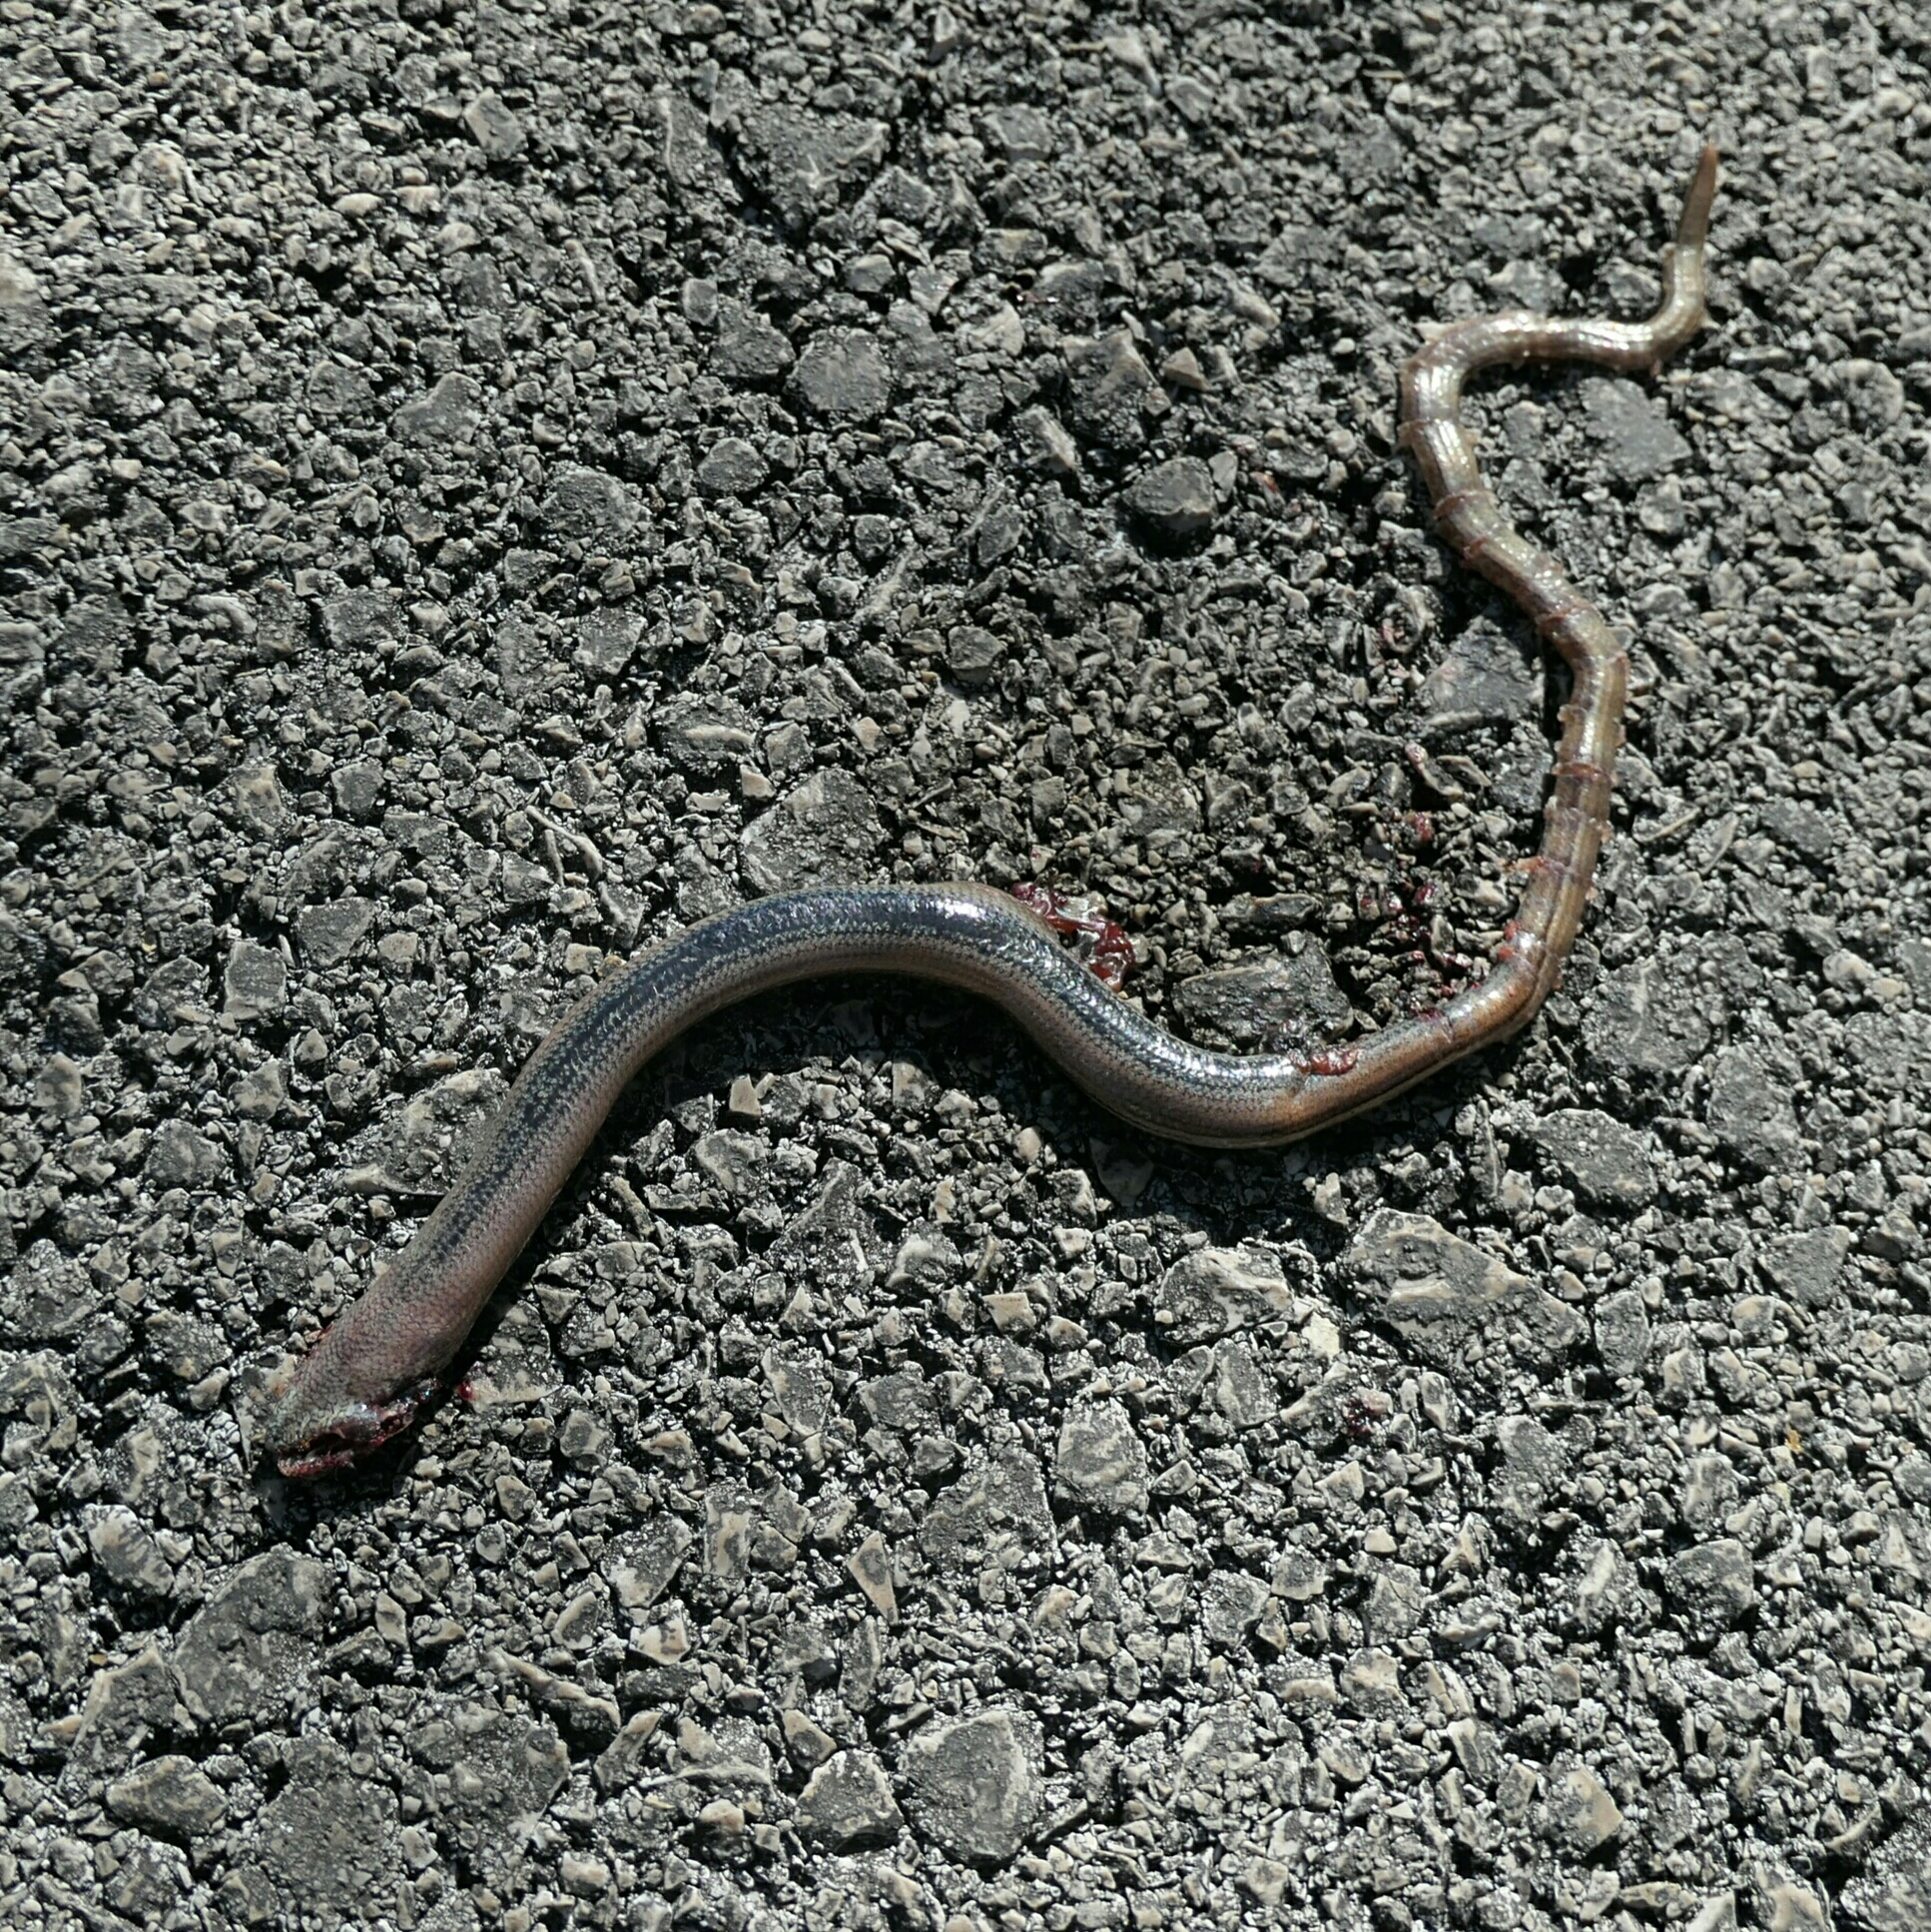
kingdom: Animalia
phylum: Chordata
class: Squamata
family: Anguidae
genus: Anguis
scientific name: Anguis fragilis
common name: Slow worm
